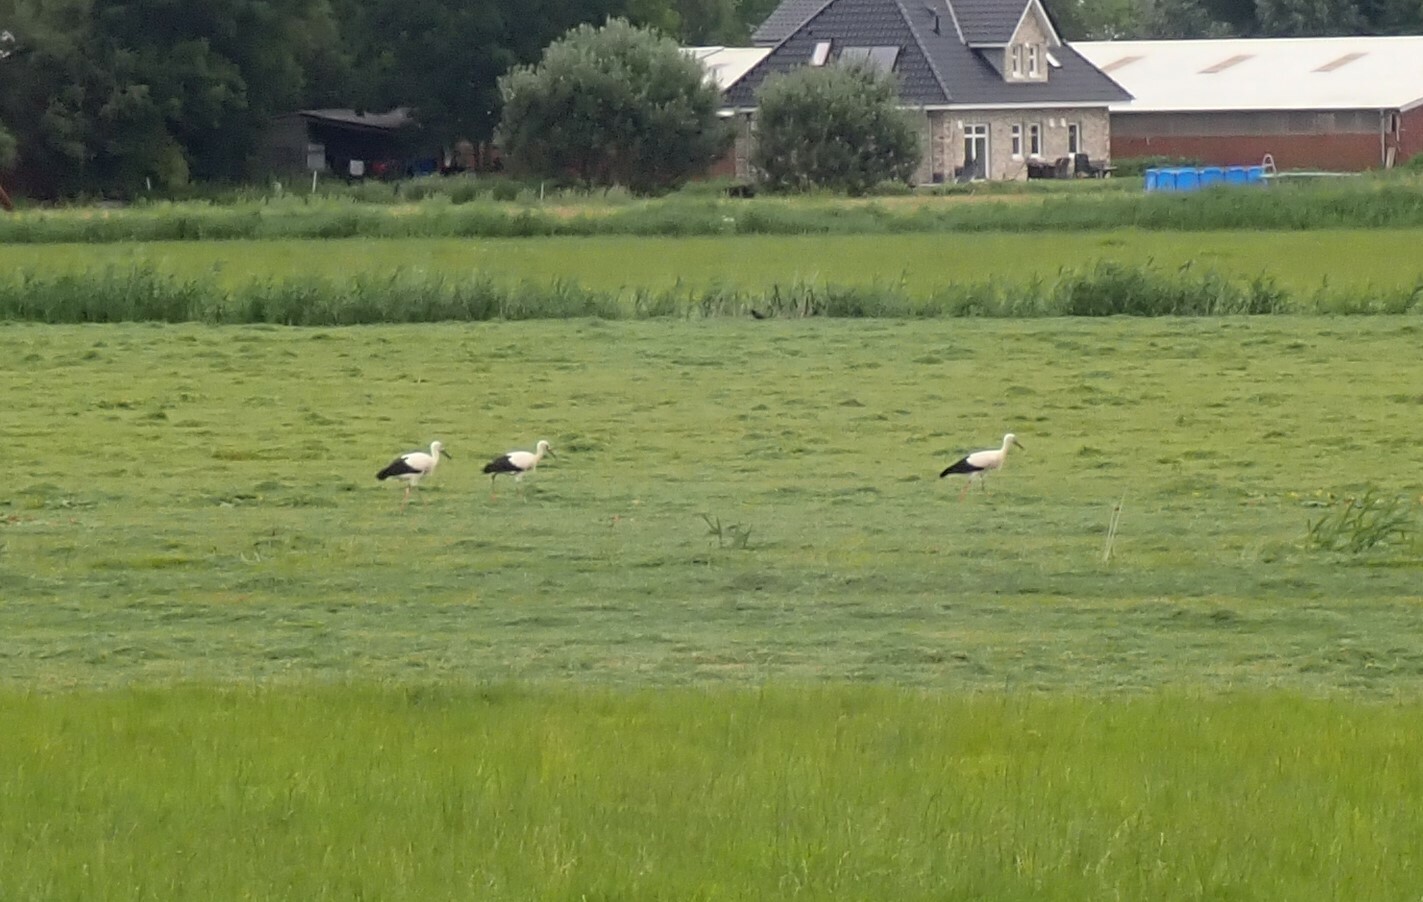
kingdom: Animalia
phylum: Chordata
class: Aves
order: Ciconiiformes
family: Ciconiidae
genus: Ciconia
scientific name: Ciconia ciconia
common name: White stork
